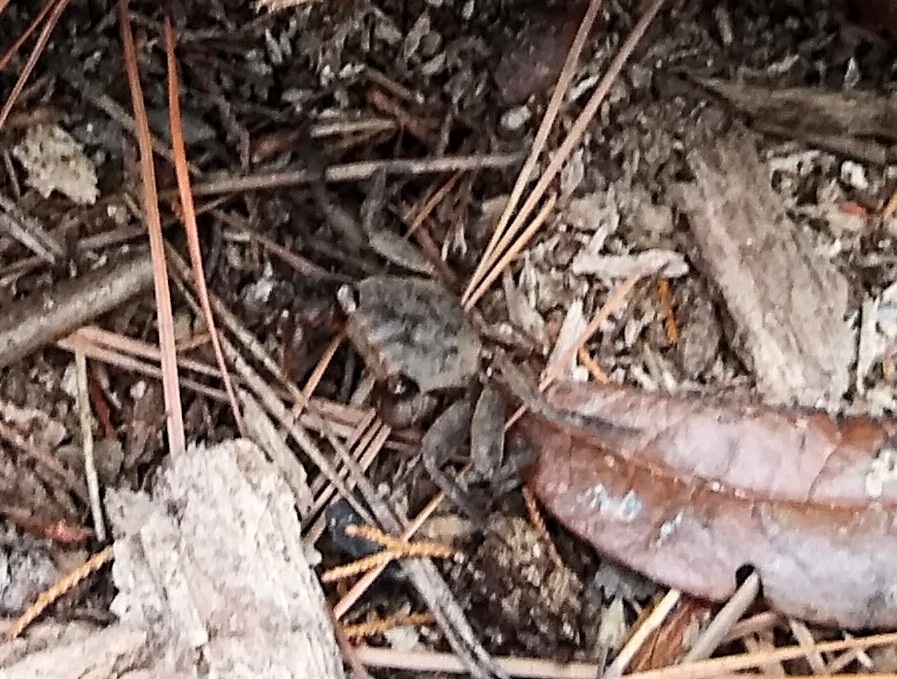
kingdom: Animalia
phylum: Arthropoda
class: Malacostraca
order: Decapoda
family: Sesarmidae
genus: Armases
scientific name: Armases cinereum
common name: Squareback marsh crab
